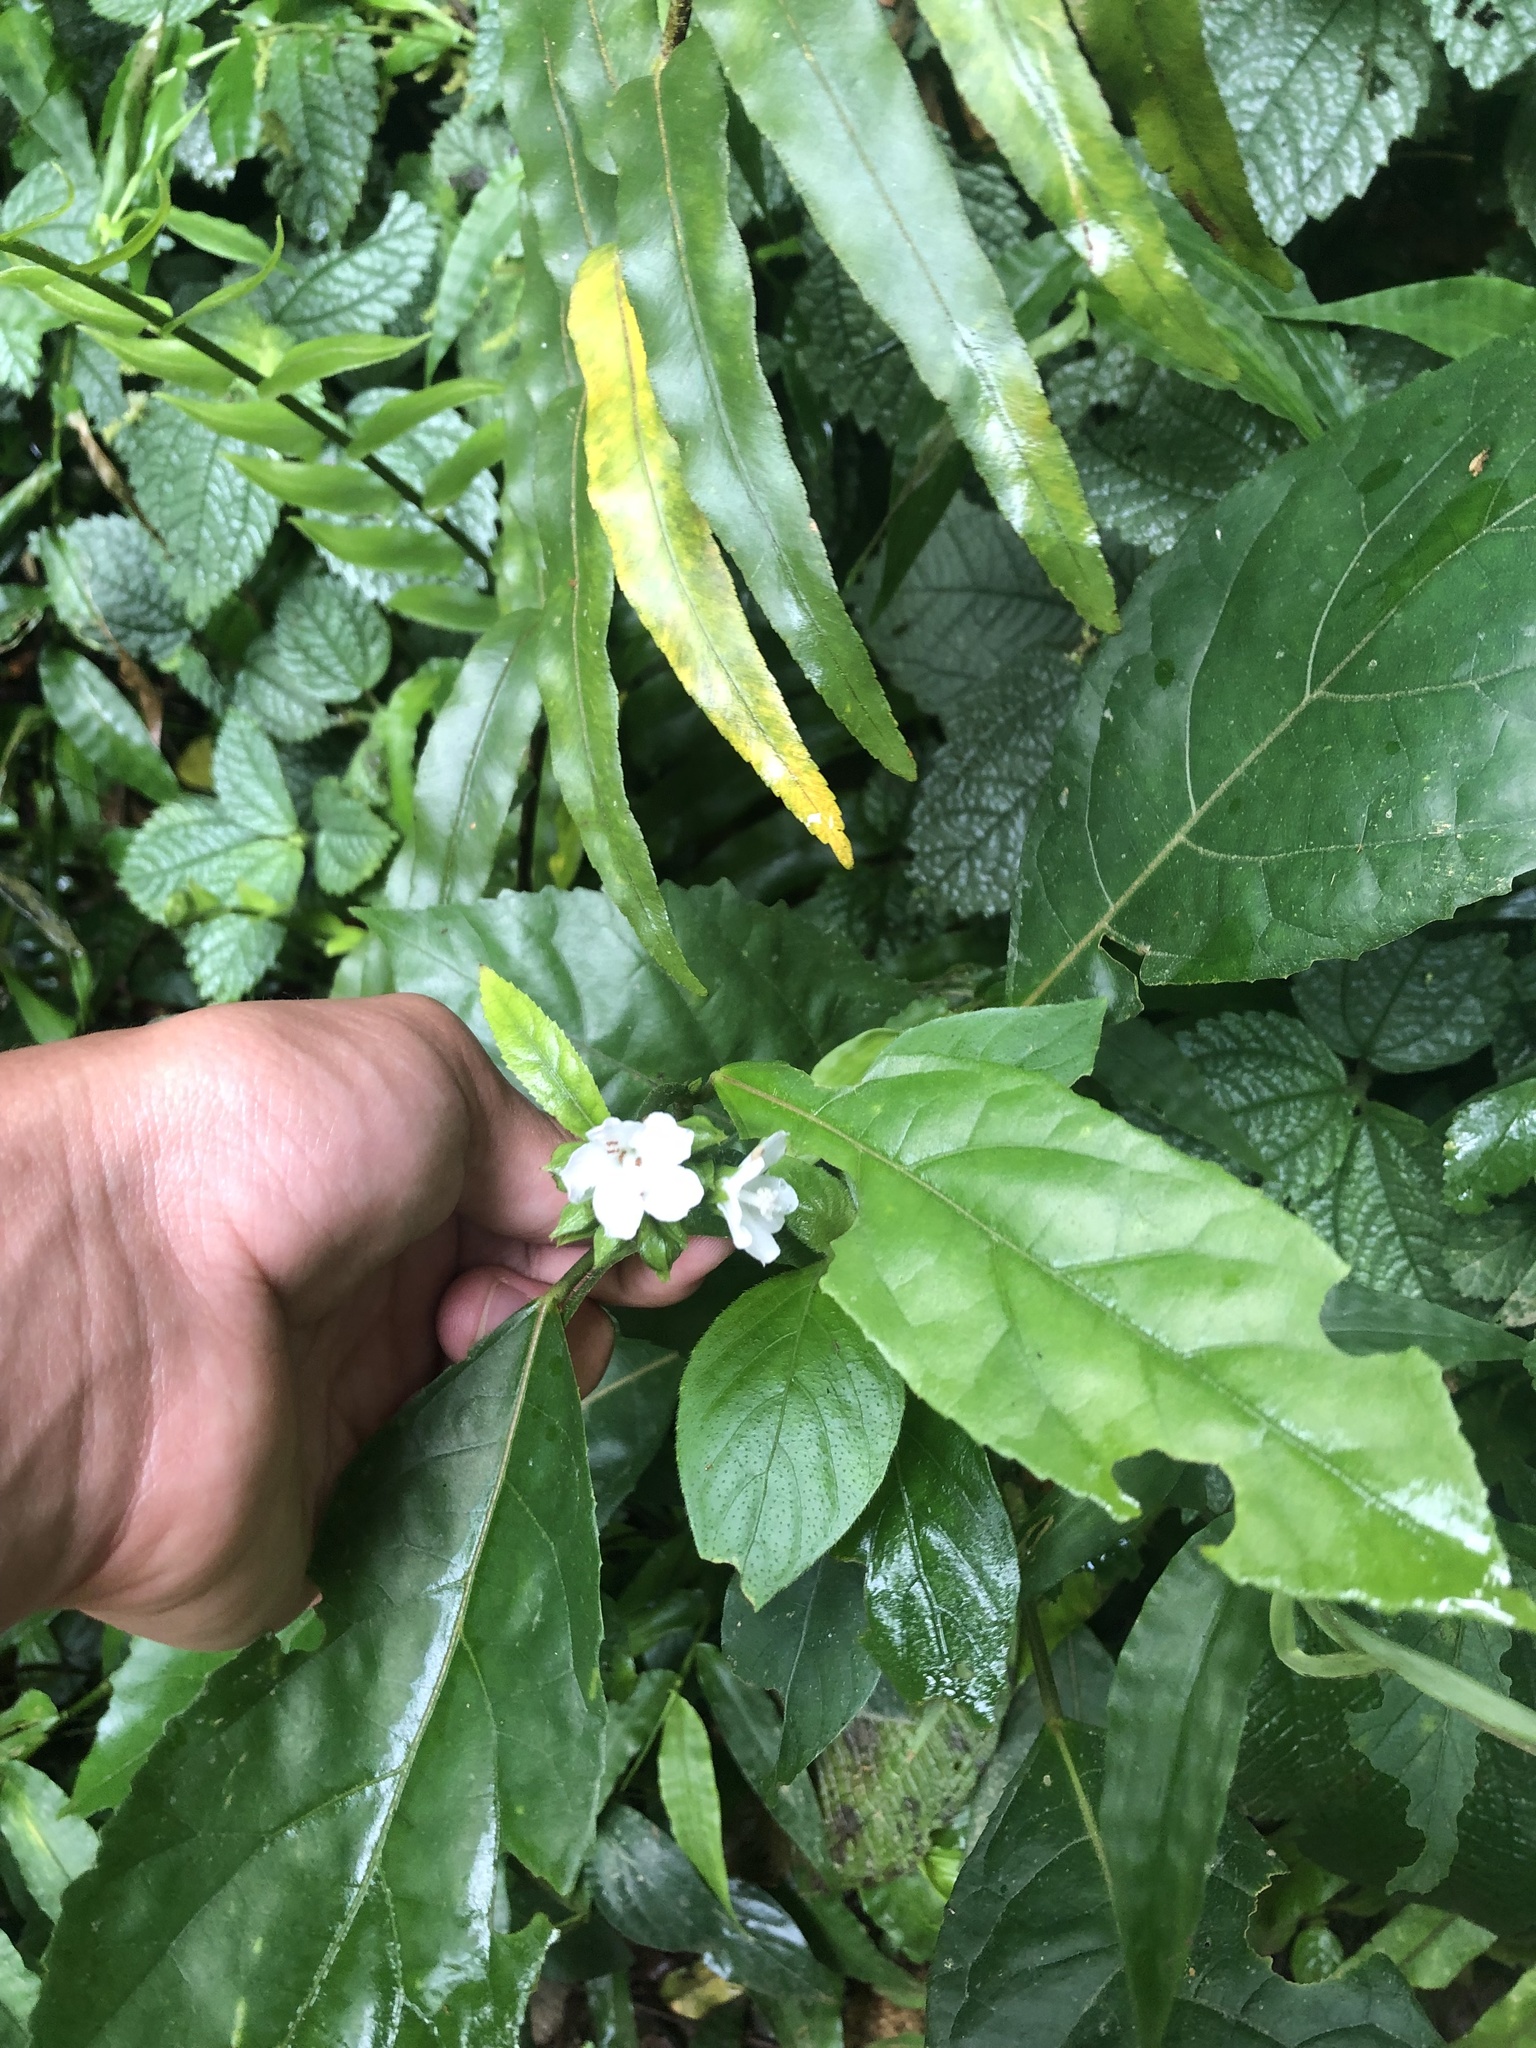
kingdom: Plantae
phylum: Tracheophyta
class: Magnoliopsida
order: Malvales
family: Malvaceae
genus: Pavonia
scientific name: Pavonia fruticosa
